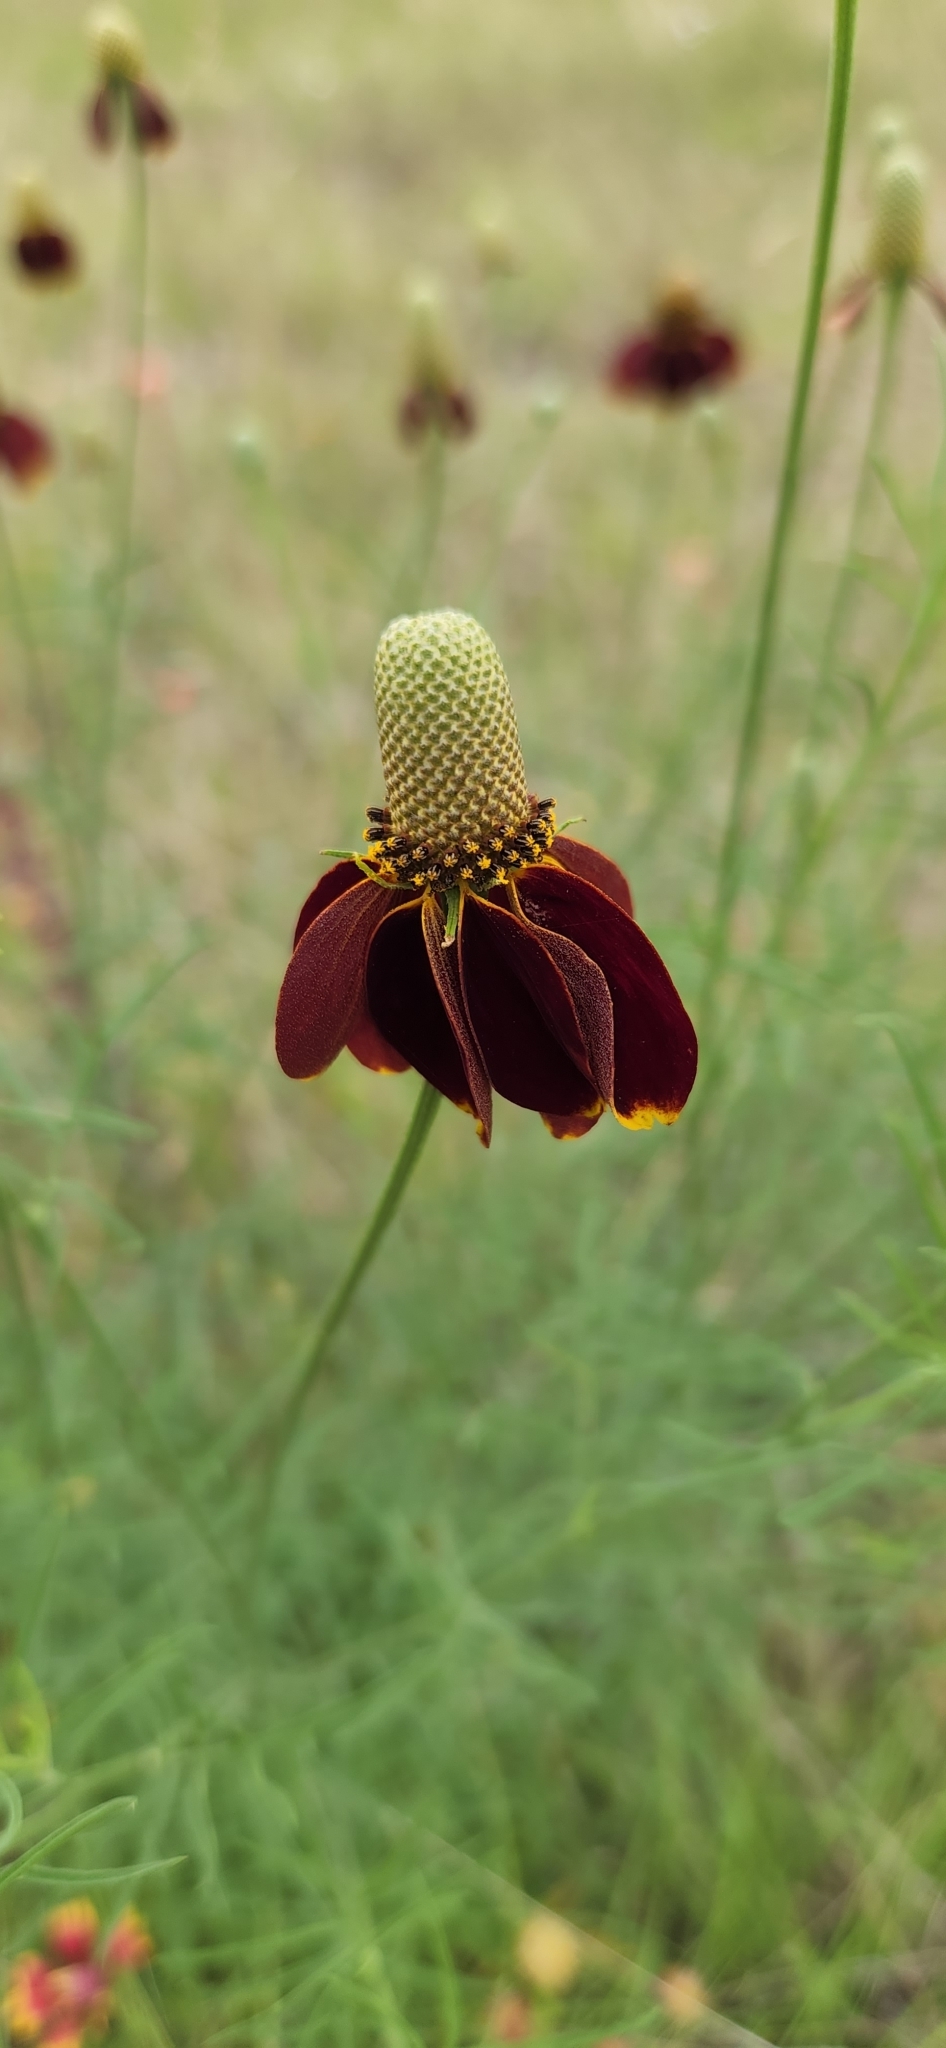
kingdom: Plantae
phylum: Tracheophyta
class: Magnoliopsida
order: Asterales
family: Asteraceae
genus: Ratibida
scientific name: Ratibida columnifera
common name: Prairie coneflower
